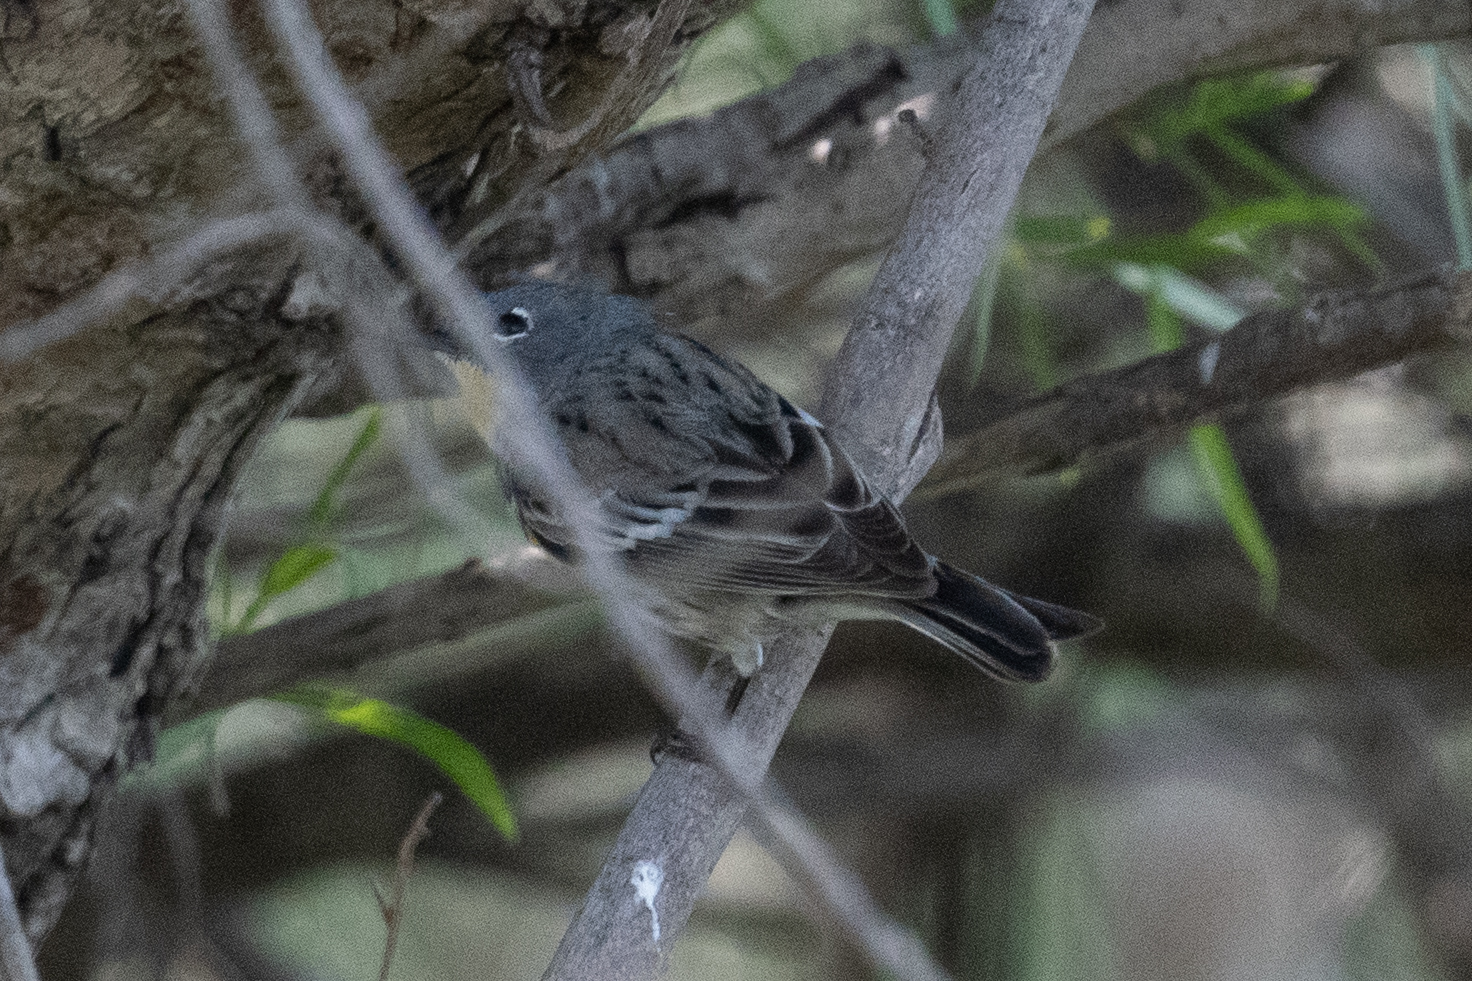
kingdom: Animalia
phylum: Chordata
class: Aves
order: Passeriformes
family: Parulidae
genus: Setophaga
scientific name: Setophaga coronata
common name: Myrtle warbler
